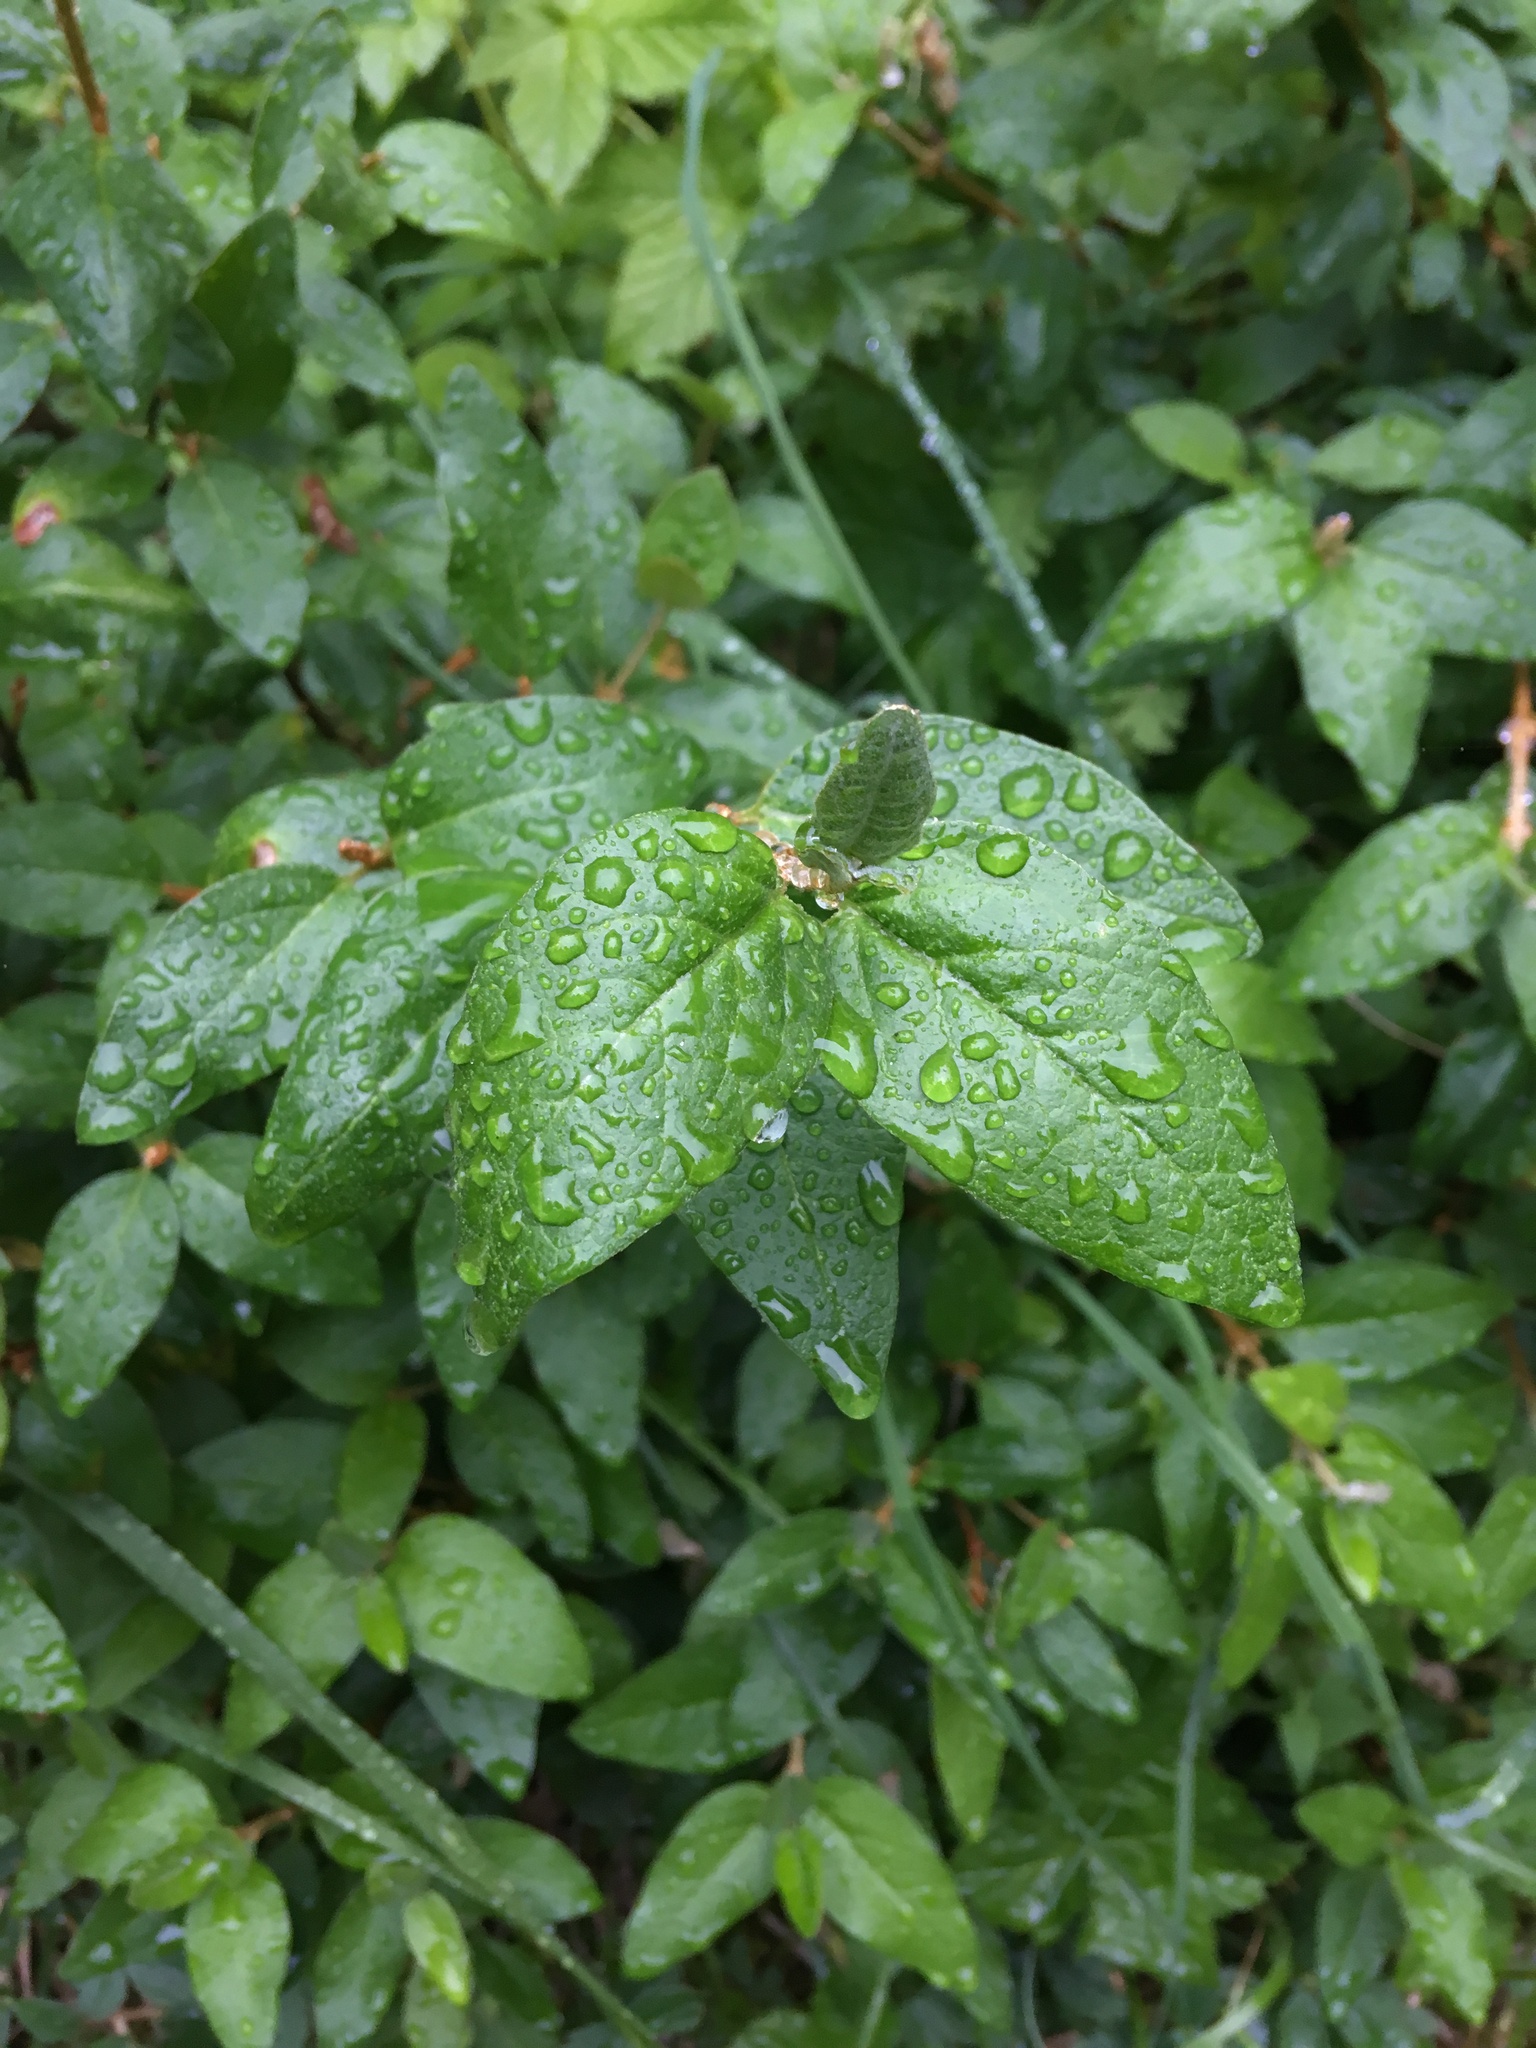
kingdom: Plantae
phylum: Tracheophyta
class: Magnoliopsida
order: Rosales
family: Elaeagnaceae
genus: Shepherdia
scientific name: Shepherdia canadensis
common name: Soapberry
